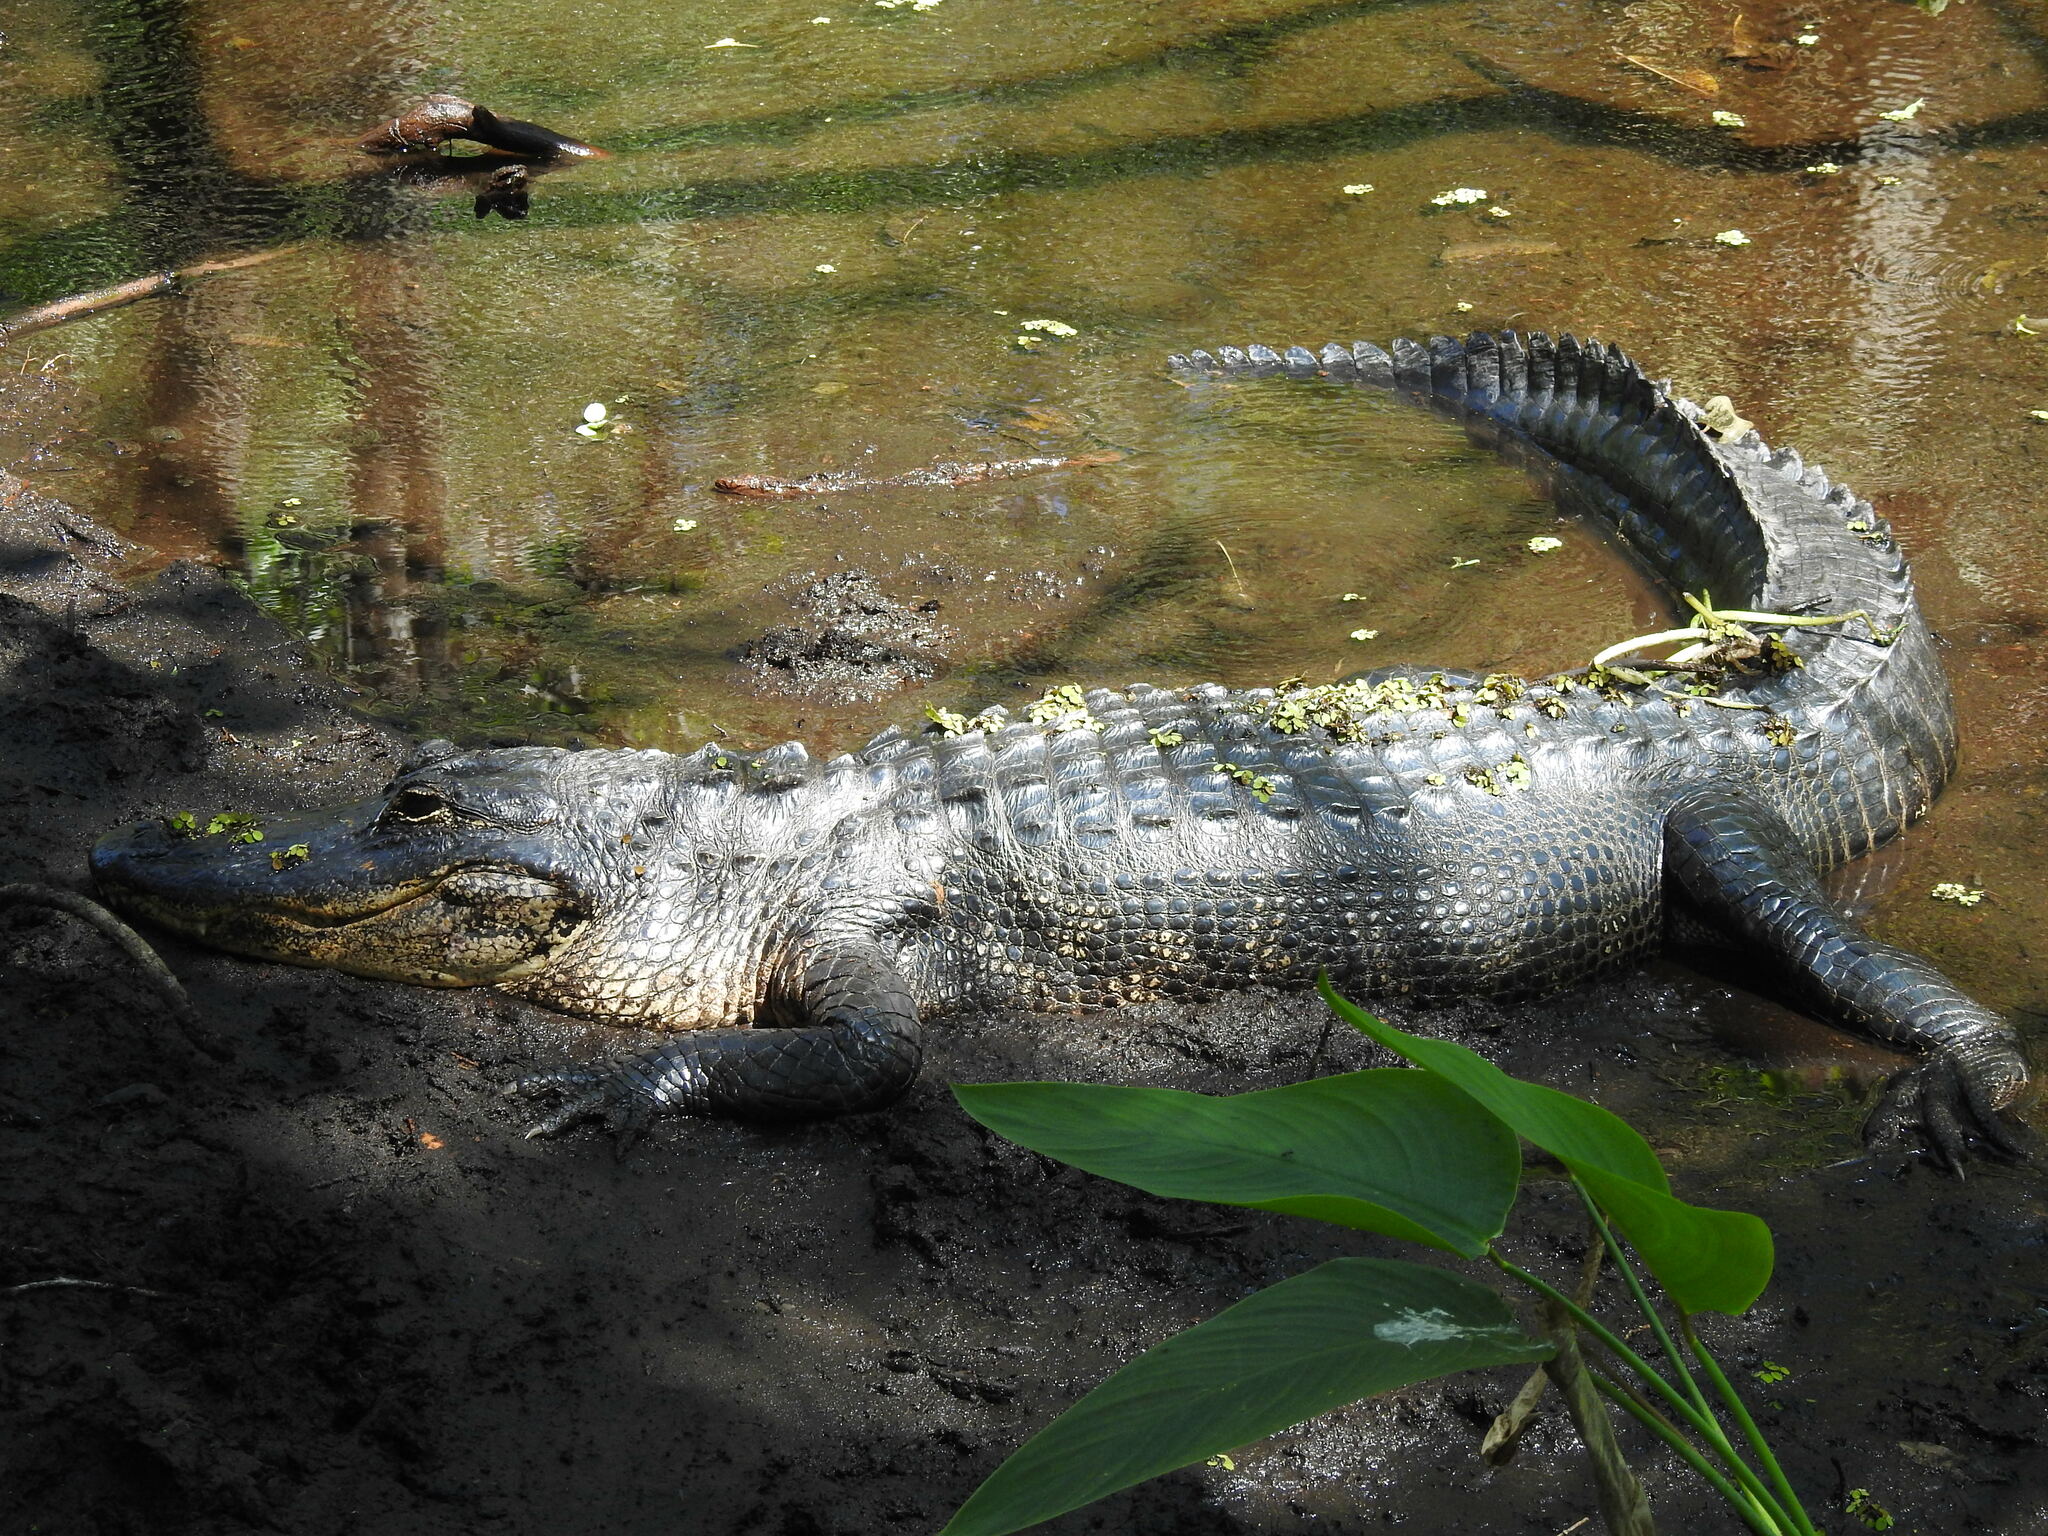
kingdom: Animalia
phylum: Chordata
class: Crocodylia
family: Alligatoridae
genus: Alligator
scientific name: Alligator mississippiensis
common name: American alligator
